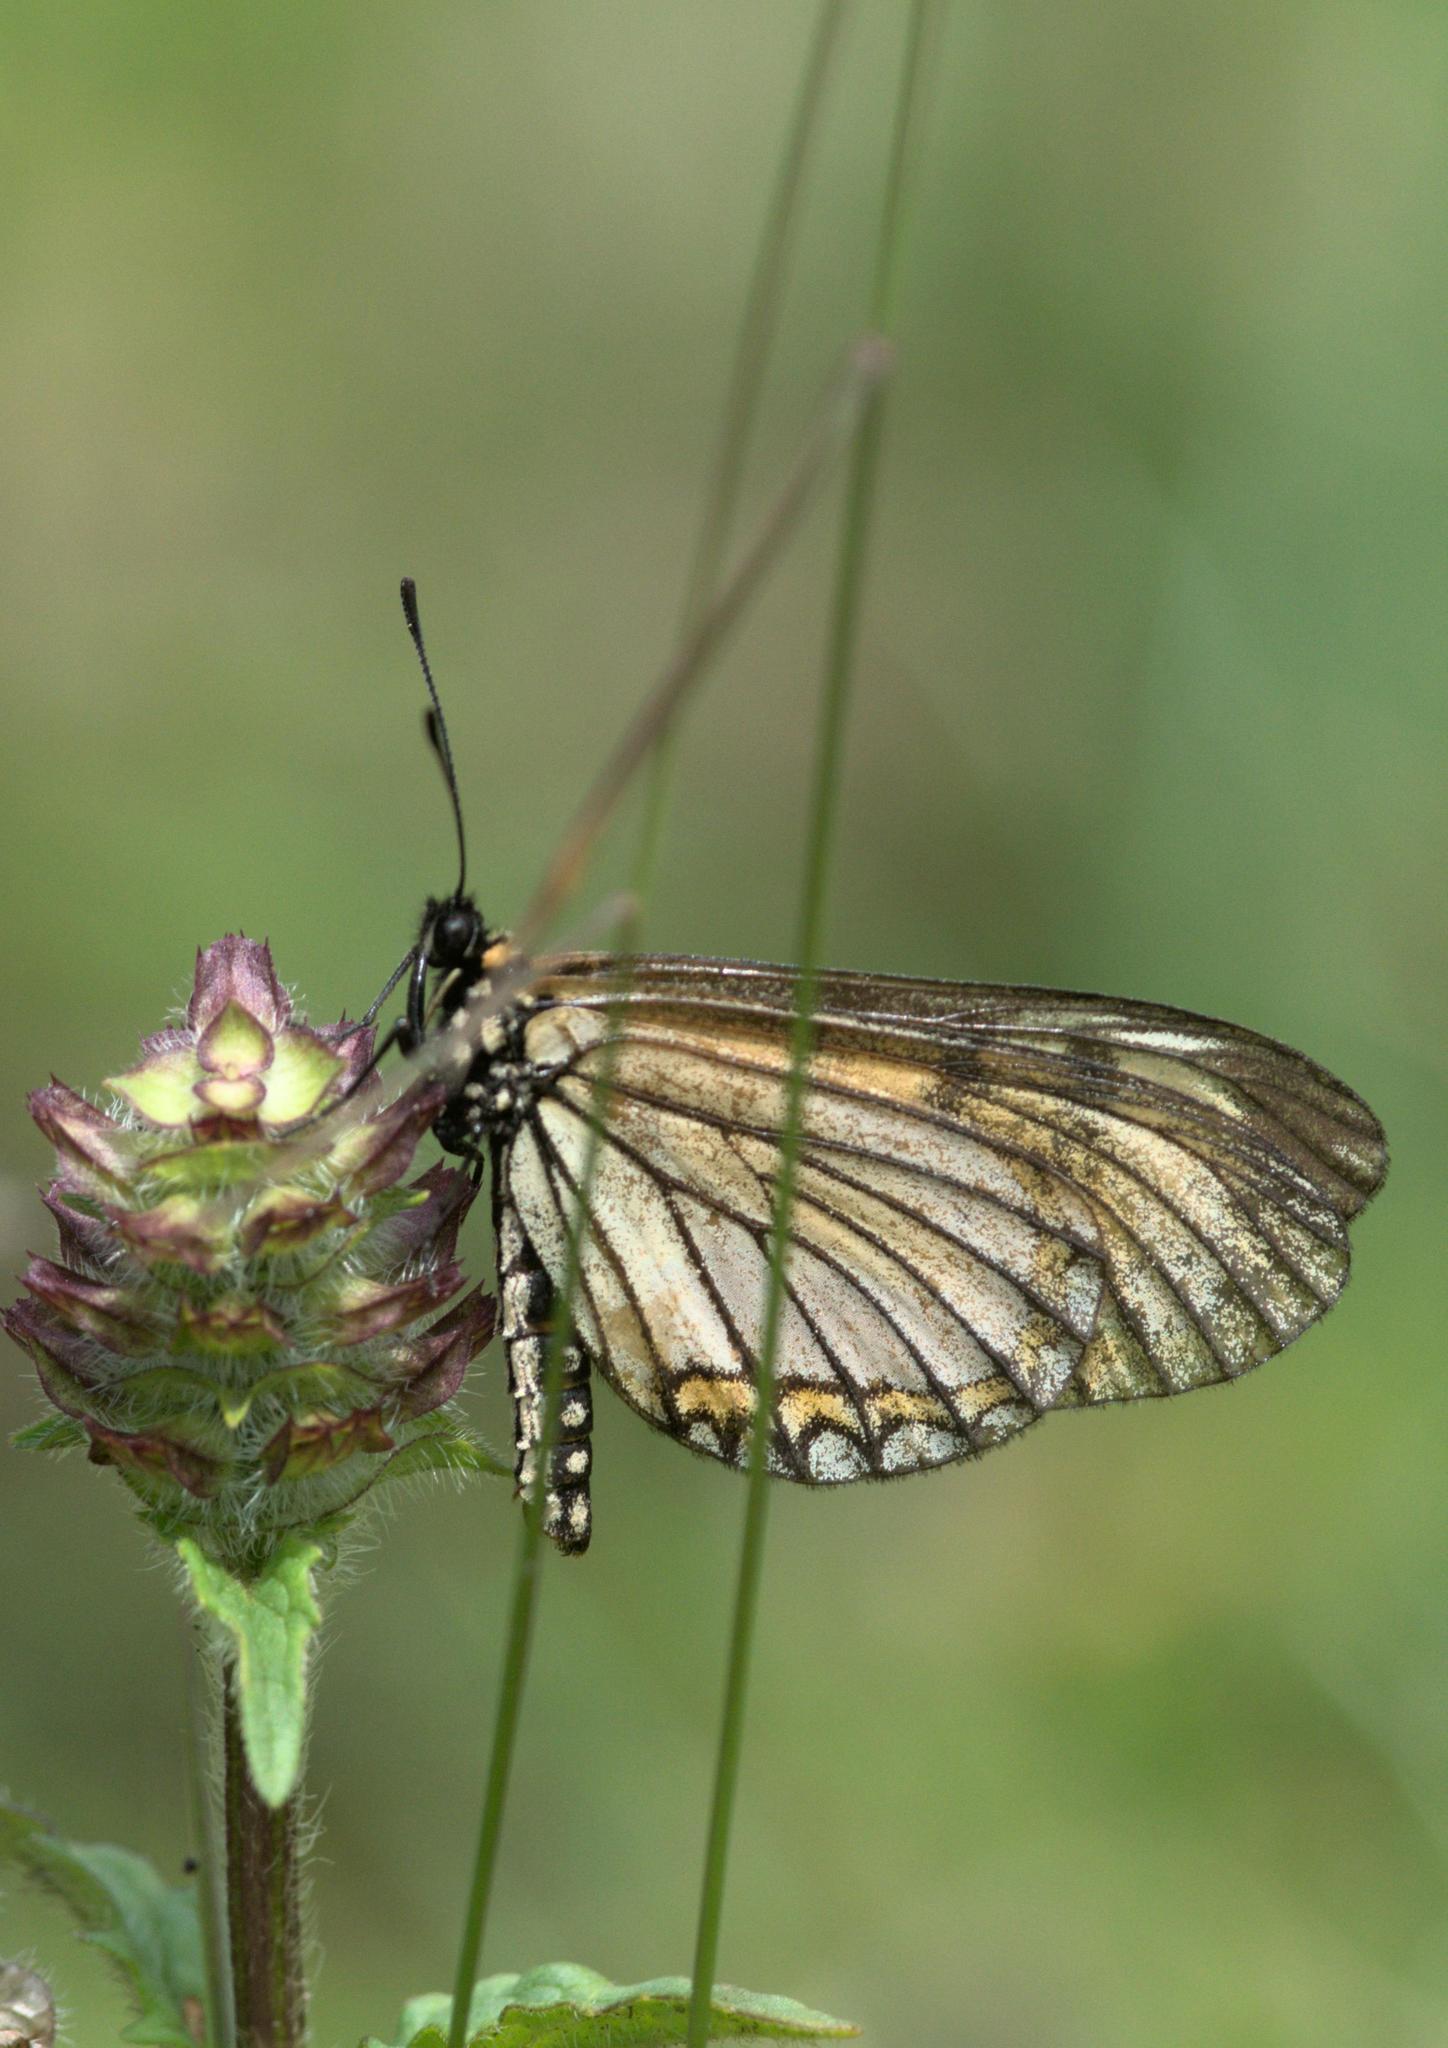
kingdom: Animalia
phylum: Arthropoda
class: Insecta
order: Lepidoptera
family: Nymphalidae
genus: Acraea
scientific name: Acraea Telchinia issoria
